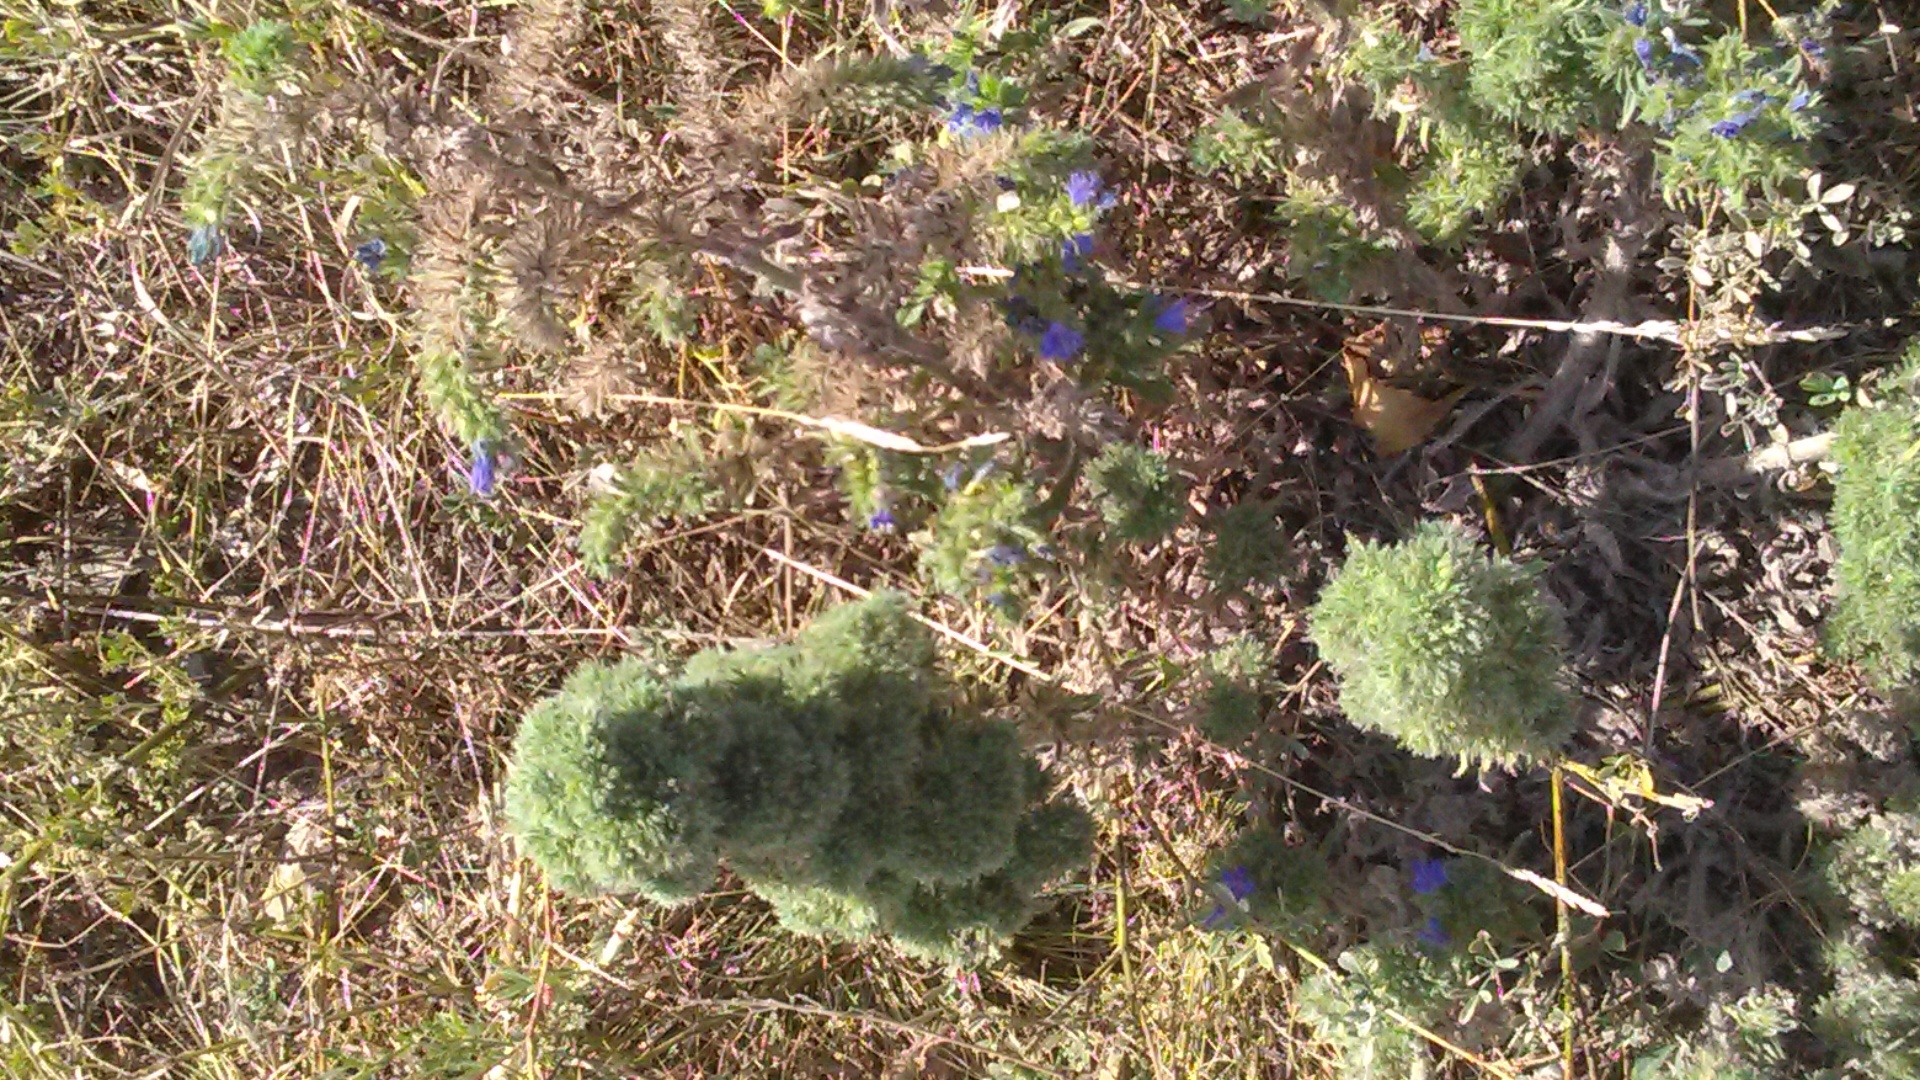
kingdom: Plantae
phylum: Tracheophyta
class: Magnoliopsida
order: Boraginales
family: Boraginaceae
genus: Echium
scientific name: Echium vulgare
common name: Common viper's bugloss
